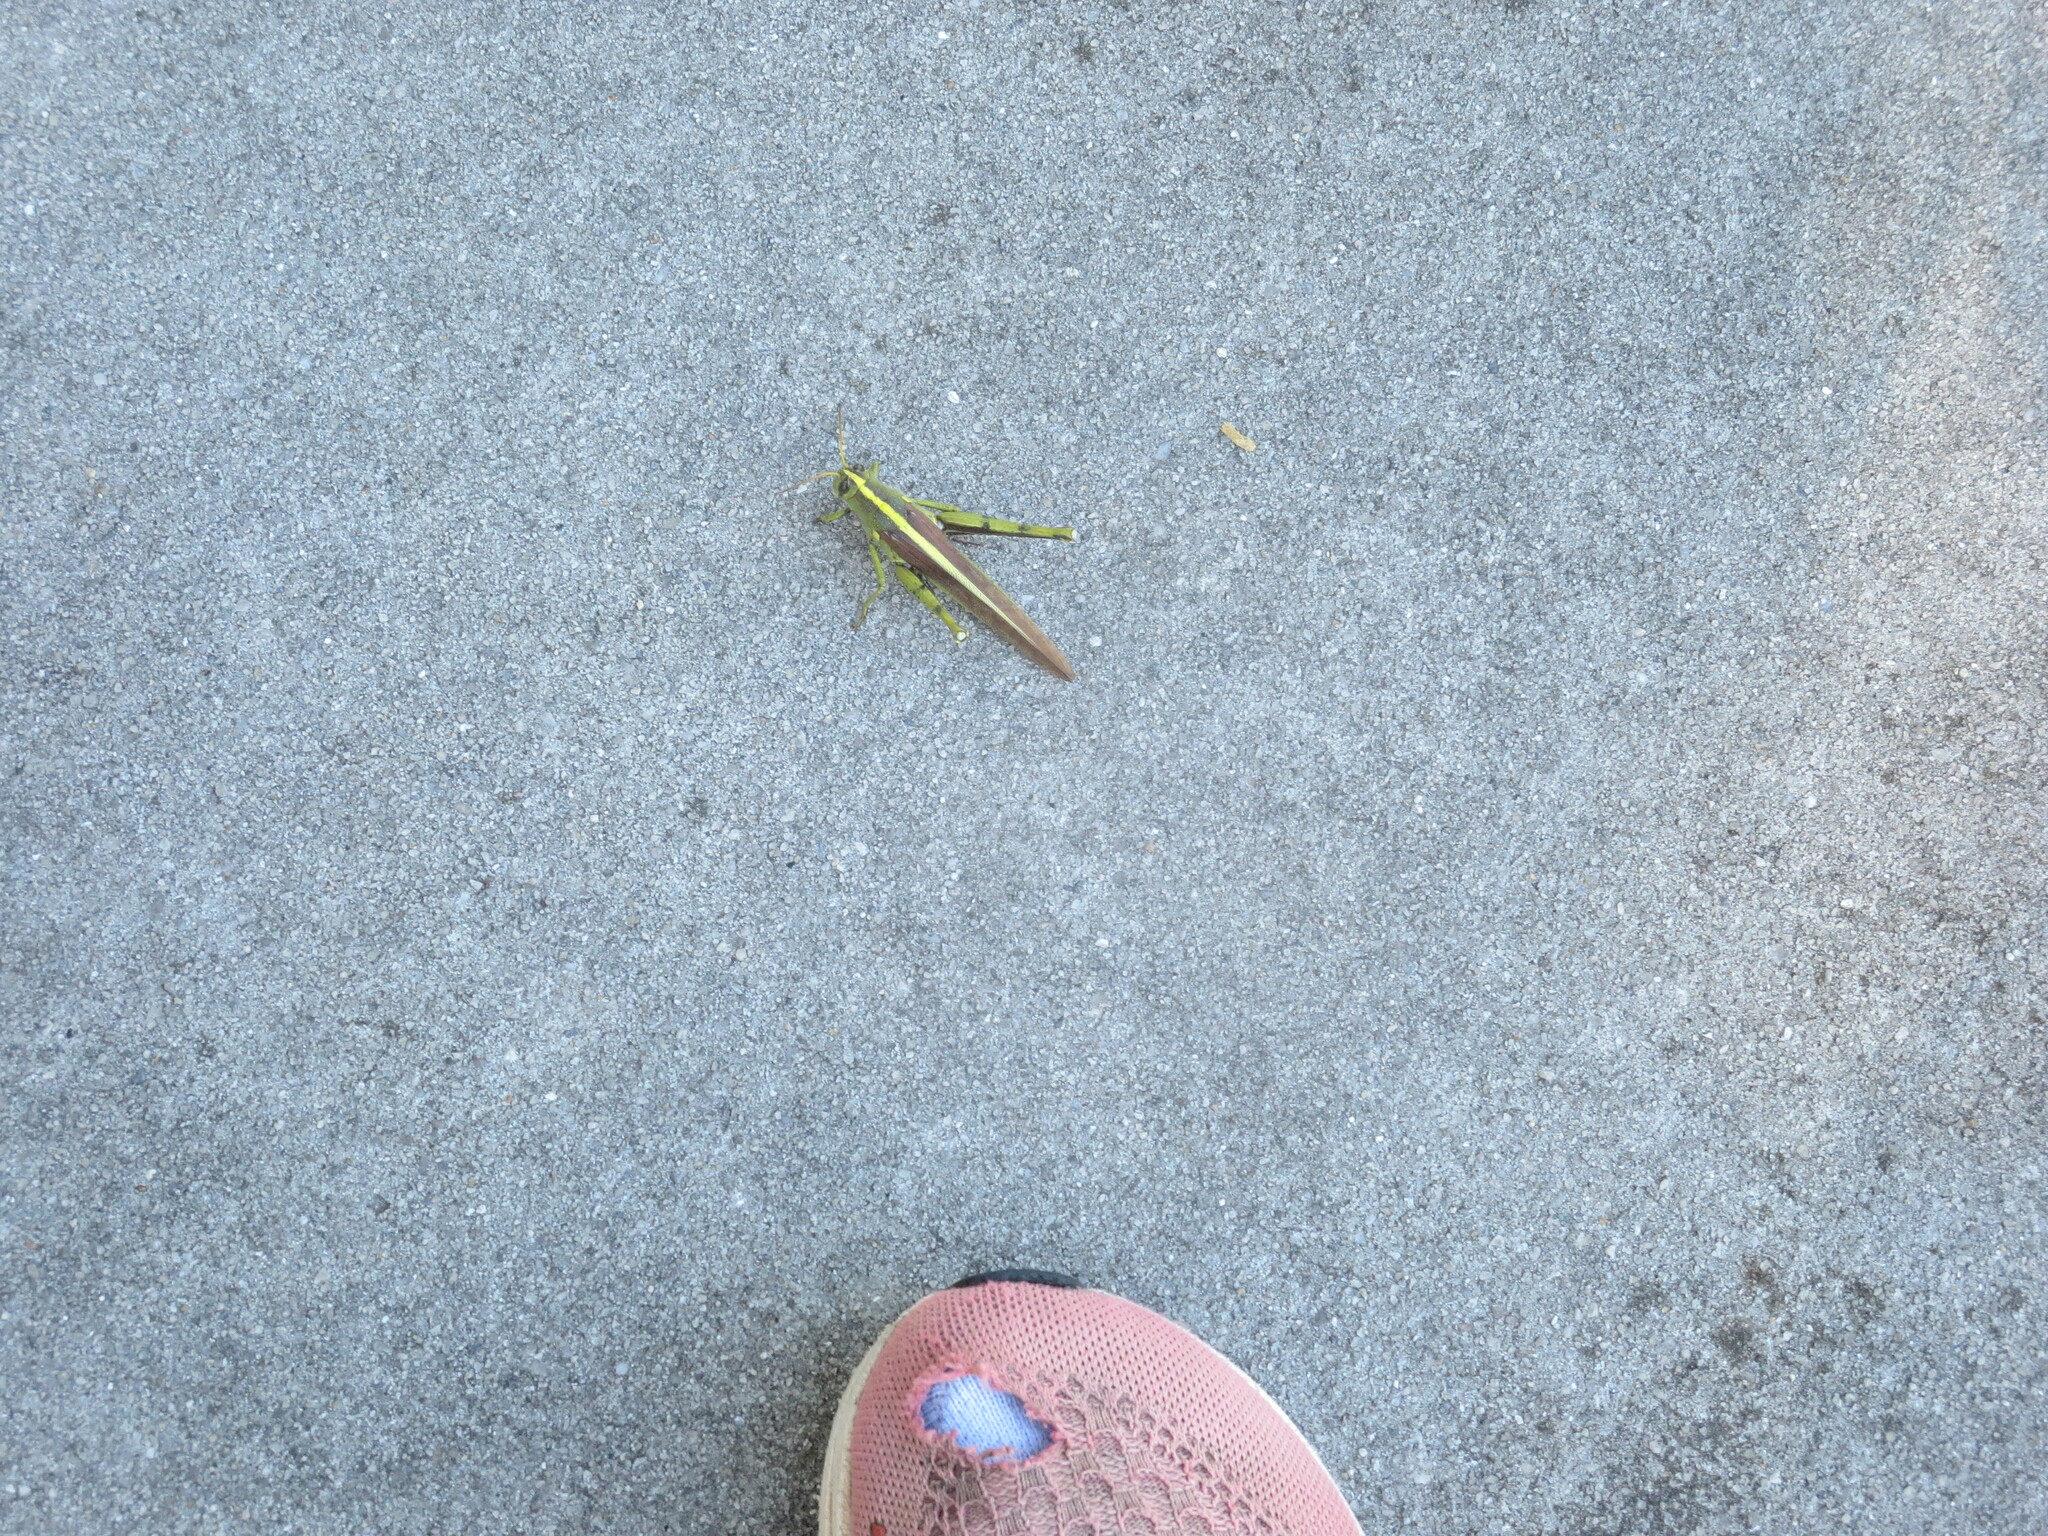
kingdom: Animalia
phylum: Arthropoda
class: Insecta
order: Orthoptera
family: Acrididae
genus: Schistocerca
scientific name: Schistocerca obscura
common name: Obscure bird grasshopper
